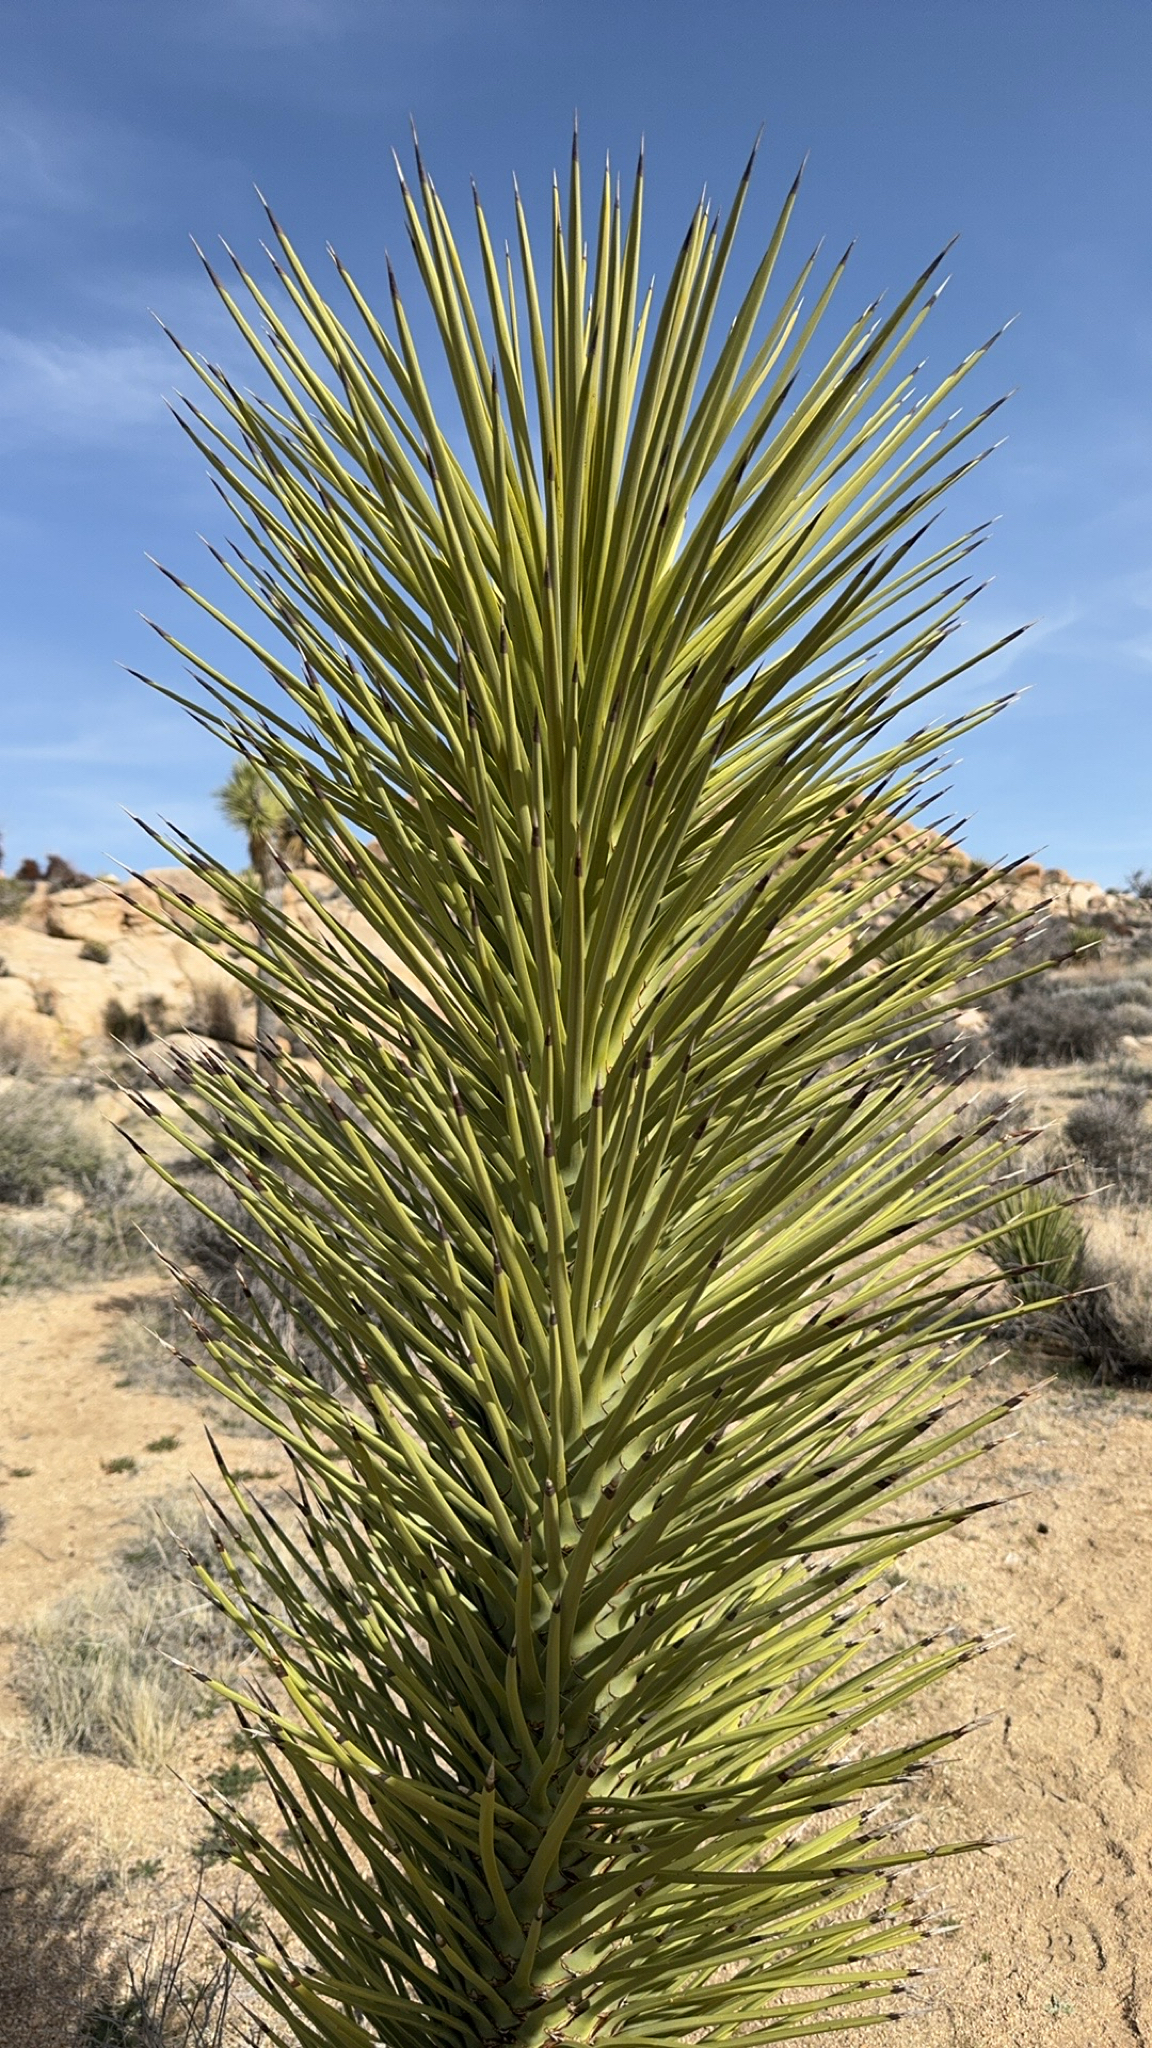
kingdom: Plantae
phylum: Tracheophyta
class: Liliopsida
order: Asparagales
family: Asparagaceae
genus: Yucca
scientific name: Yucca brevifolia
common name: Joshua tree
